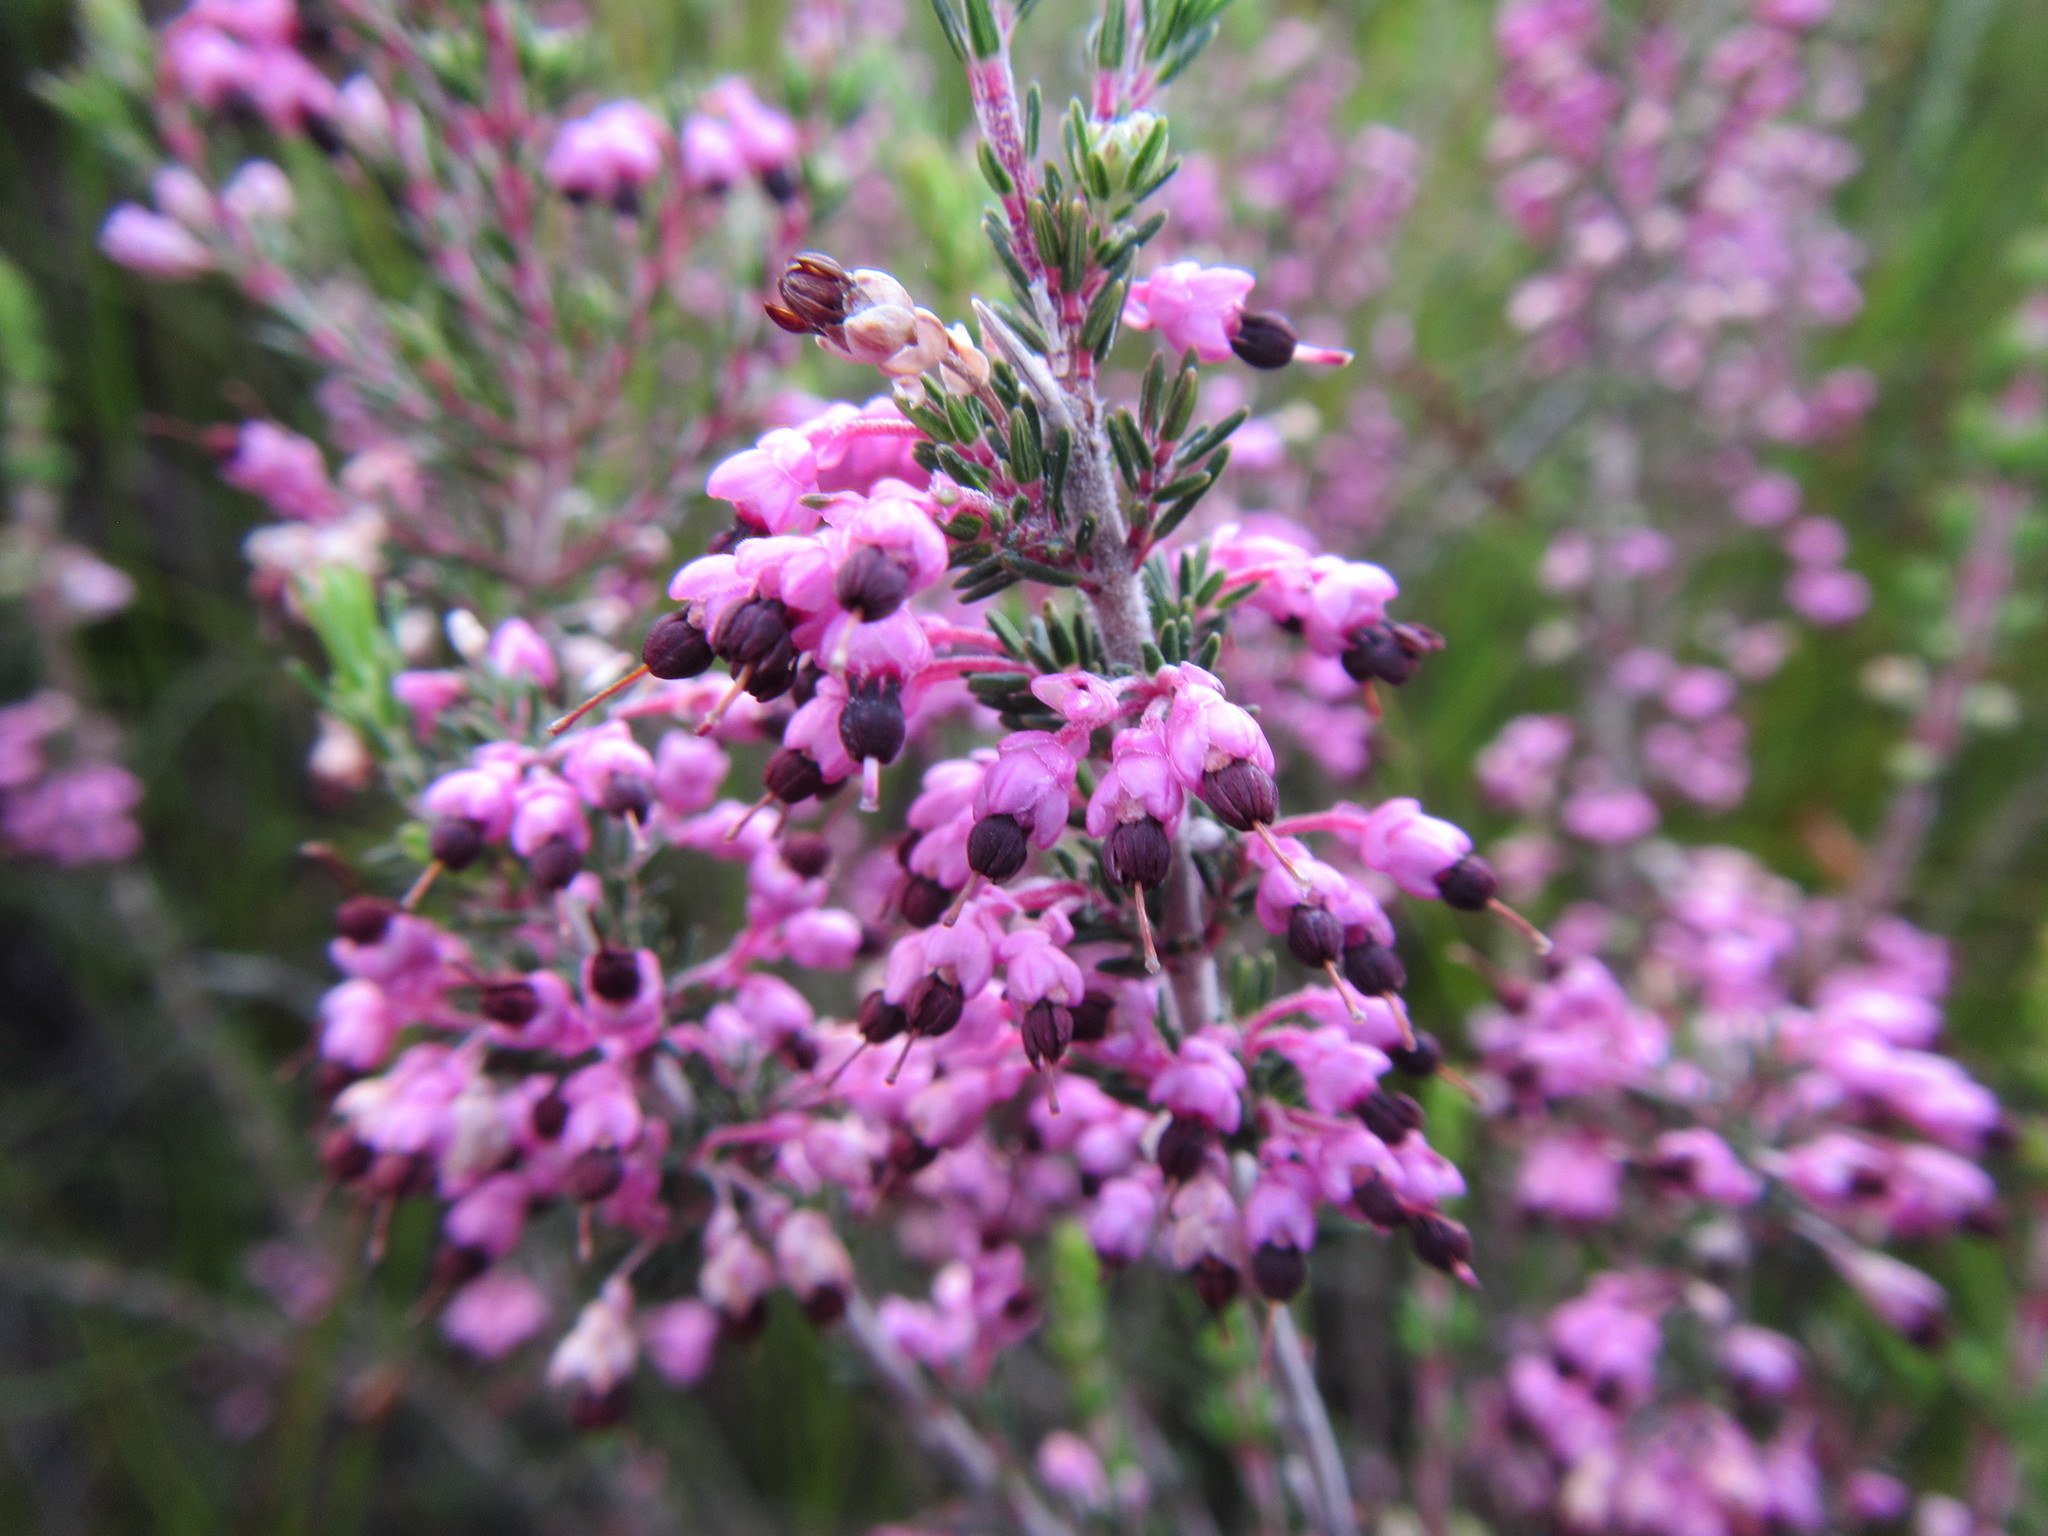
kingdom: Plantae
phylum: Tracheophyta
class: Magnoliopsida
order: Ericales
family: Ericaceae
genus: Erica
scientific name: Erica placentiflora
